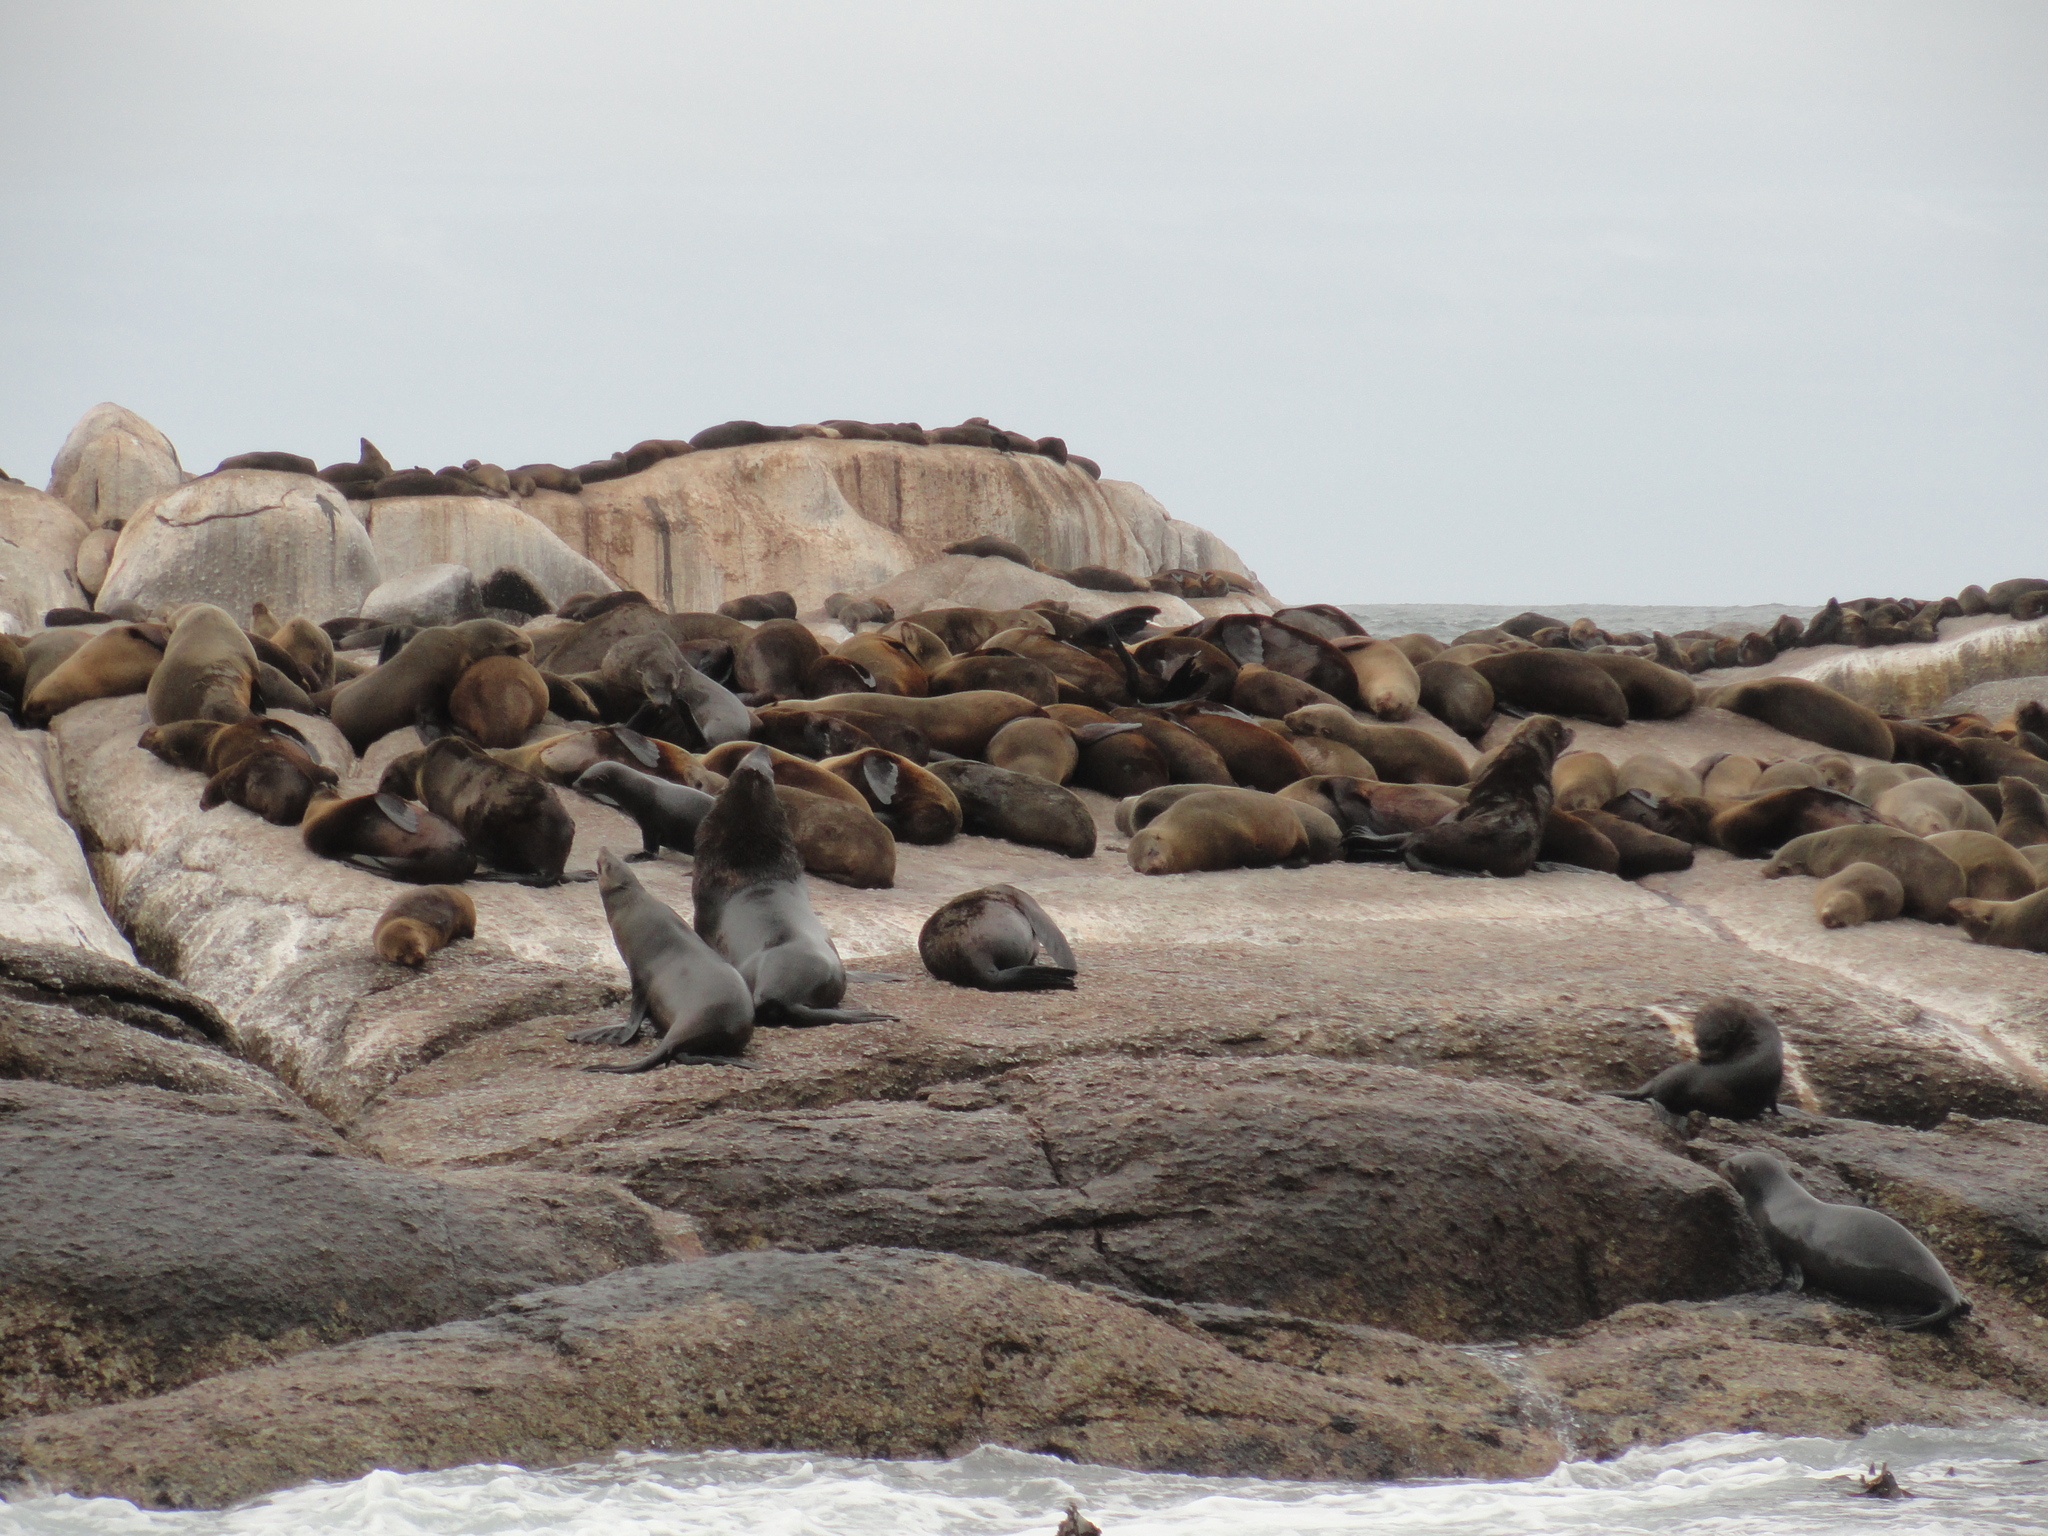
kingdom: Animalia
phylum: Chordata
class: Mammalia
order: Carnivora
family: Otariidae
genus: Arctocephalus
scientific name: Arctocephalus pusillus
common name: Brown fur seal
